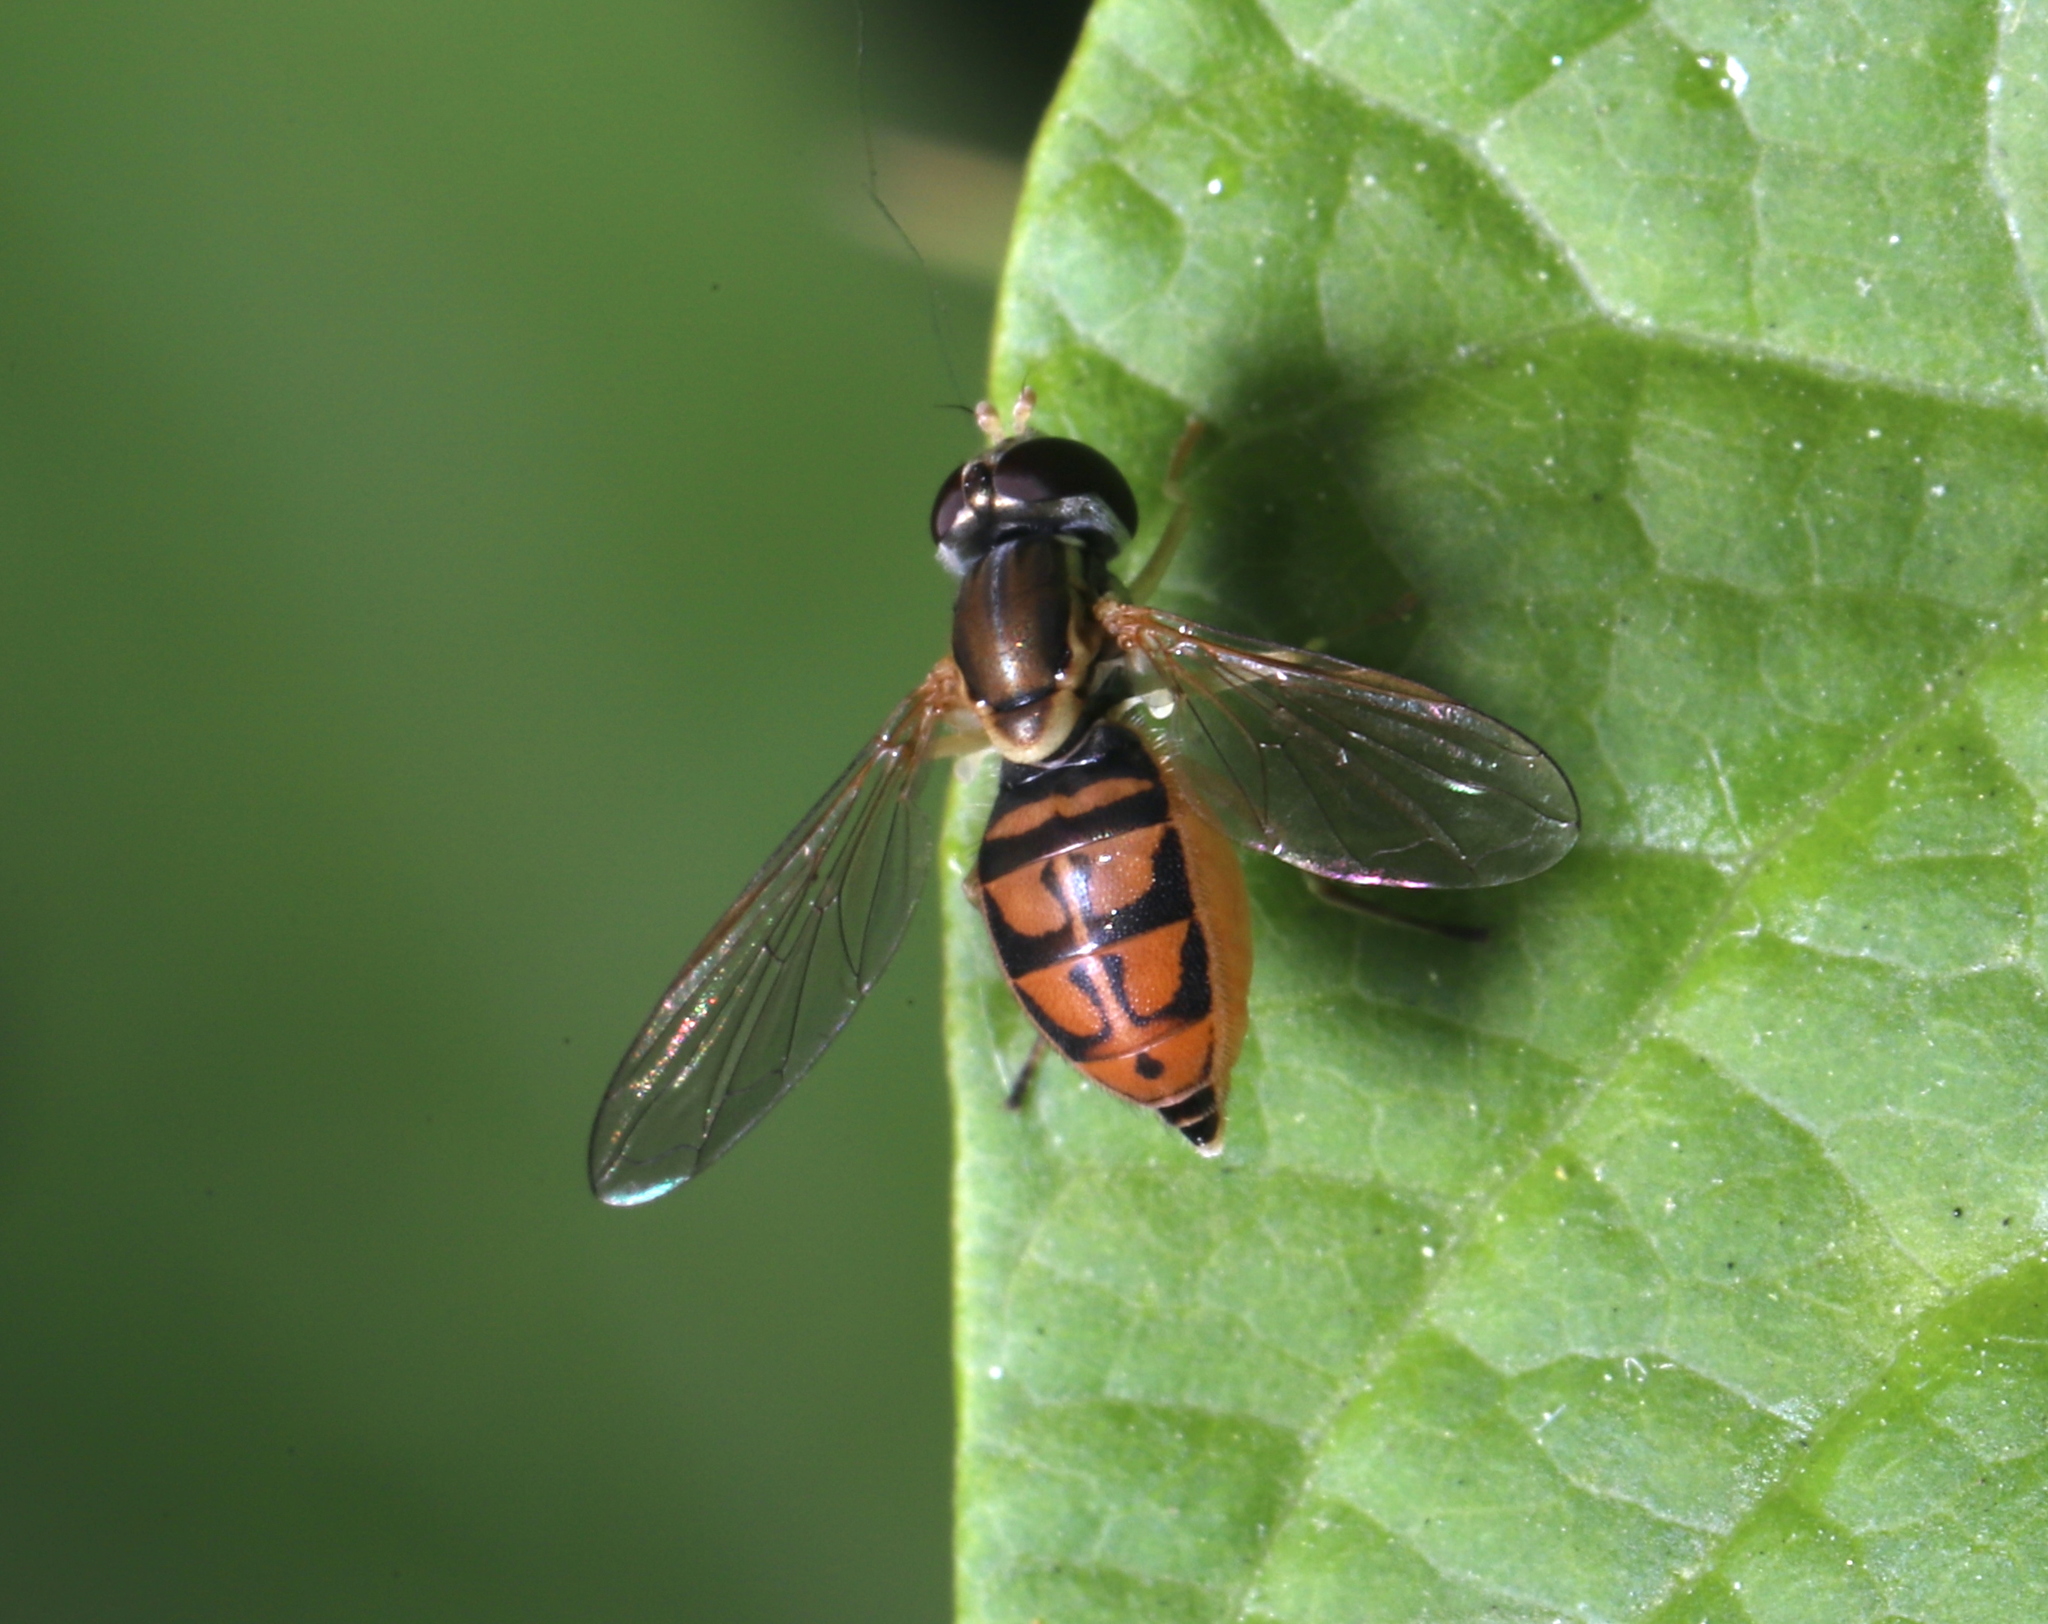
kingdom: Animalia
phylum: Arthropoda
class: Insecta
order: Diptera
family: Syrphidae
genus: Toxomerus
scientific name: Toxomerus marginatus
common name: Syrphid fly
